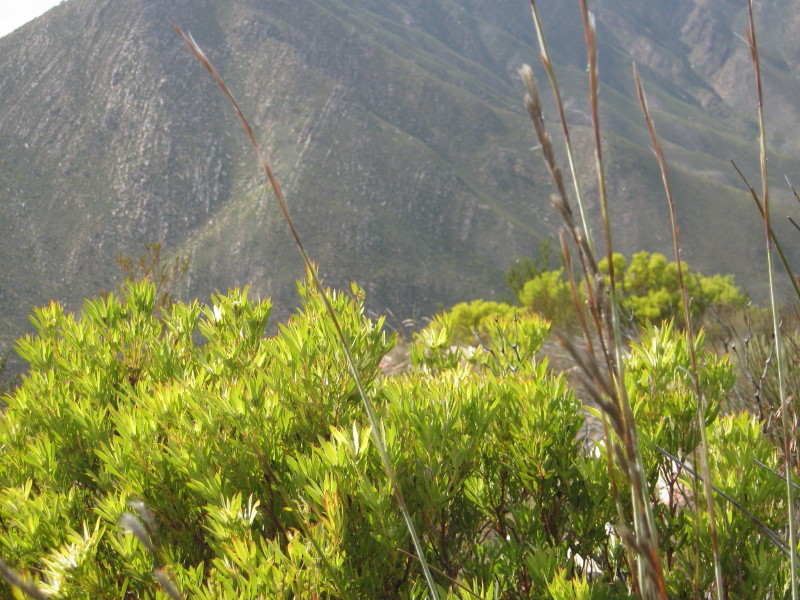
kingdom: Plantae
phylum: Tracheophyta
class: Magnoliopsida
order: Proteales
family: Proteaceae
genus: Leucadendron
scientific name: Leucadendron salignum
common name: Common sunshine conebush
